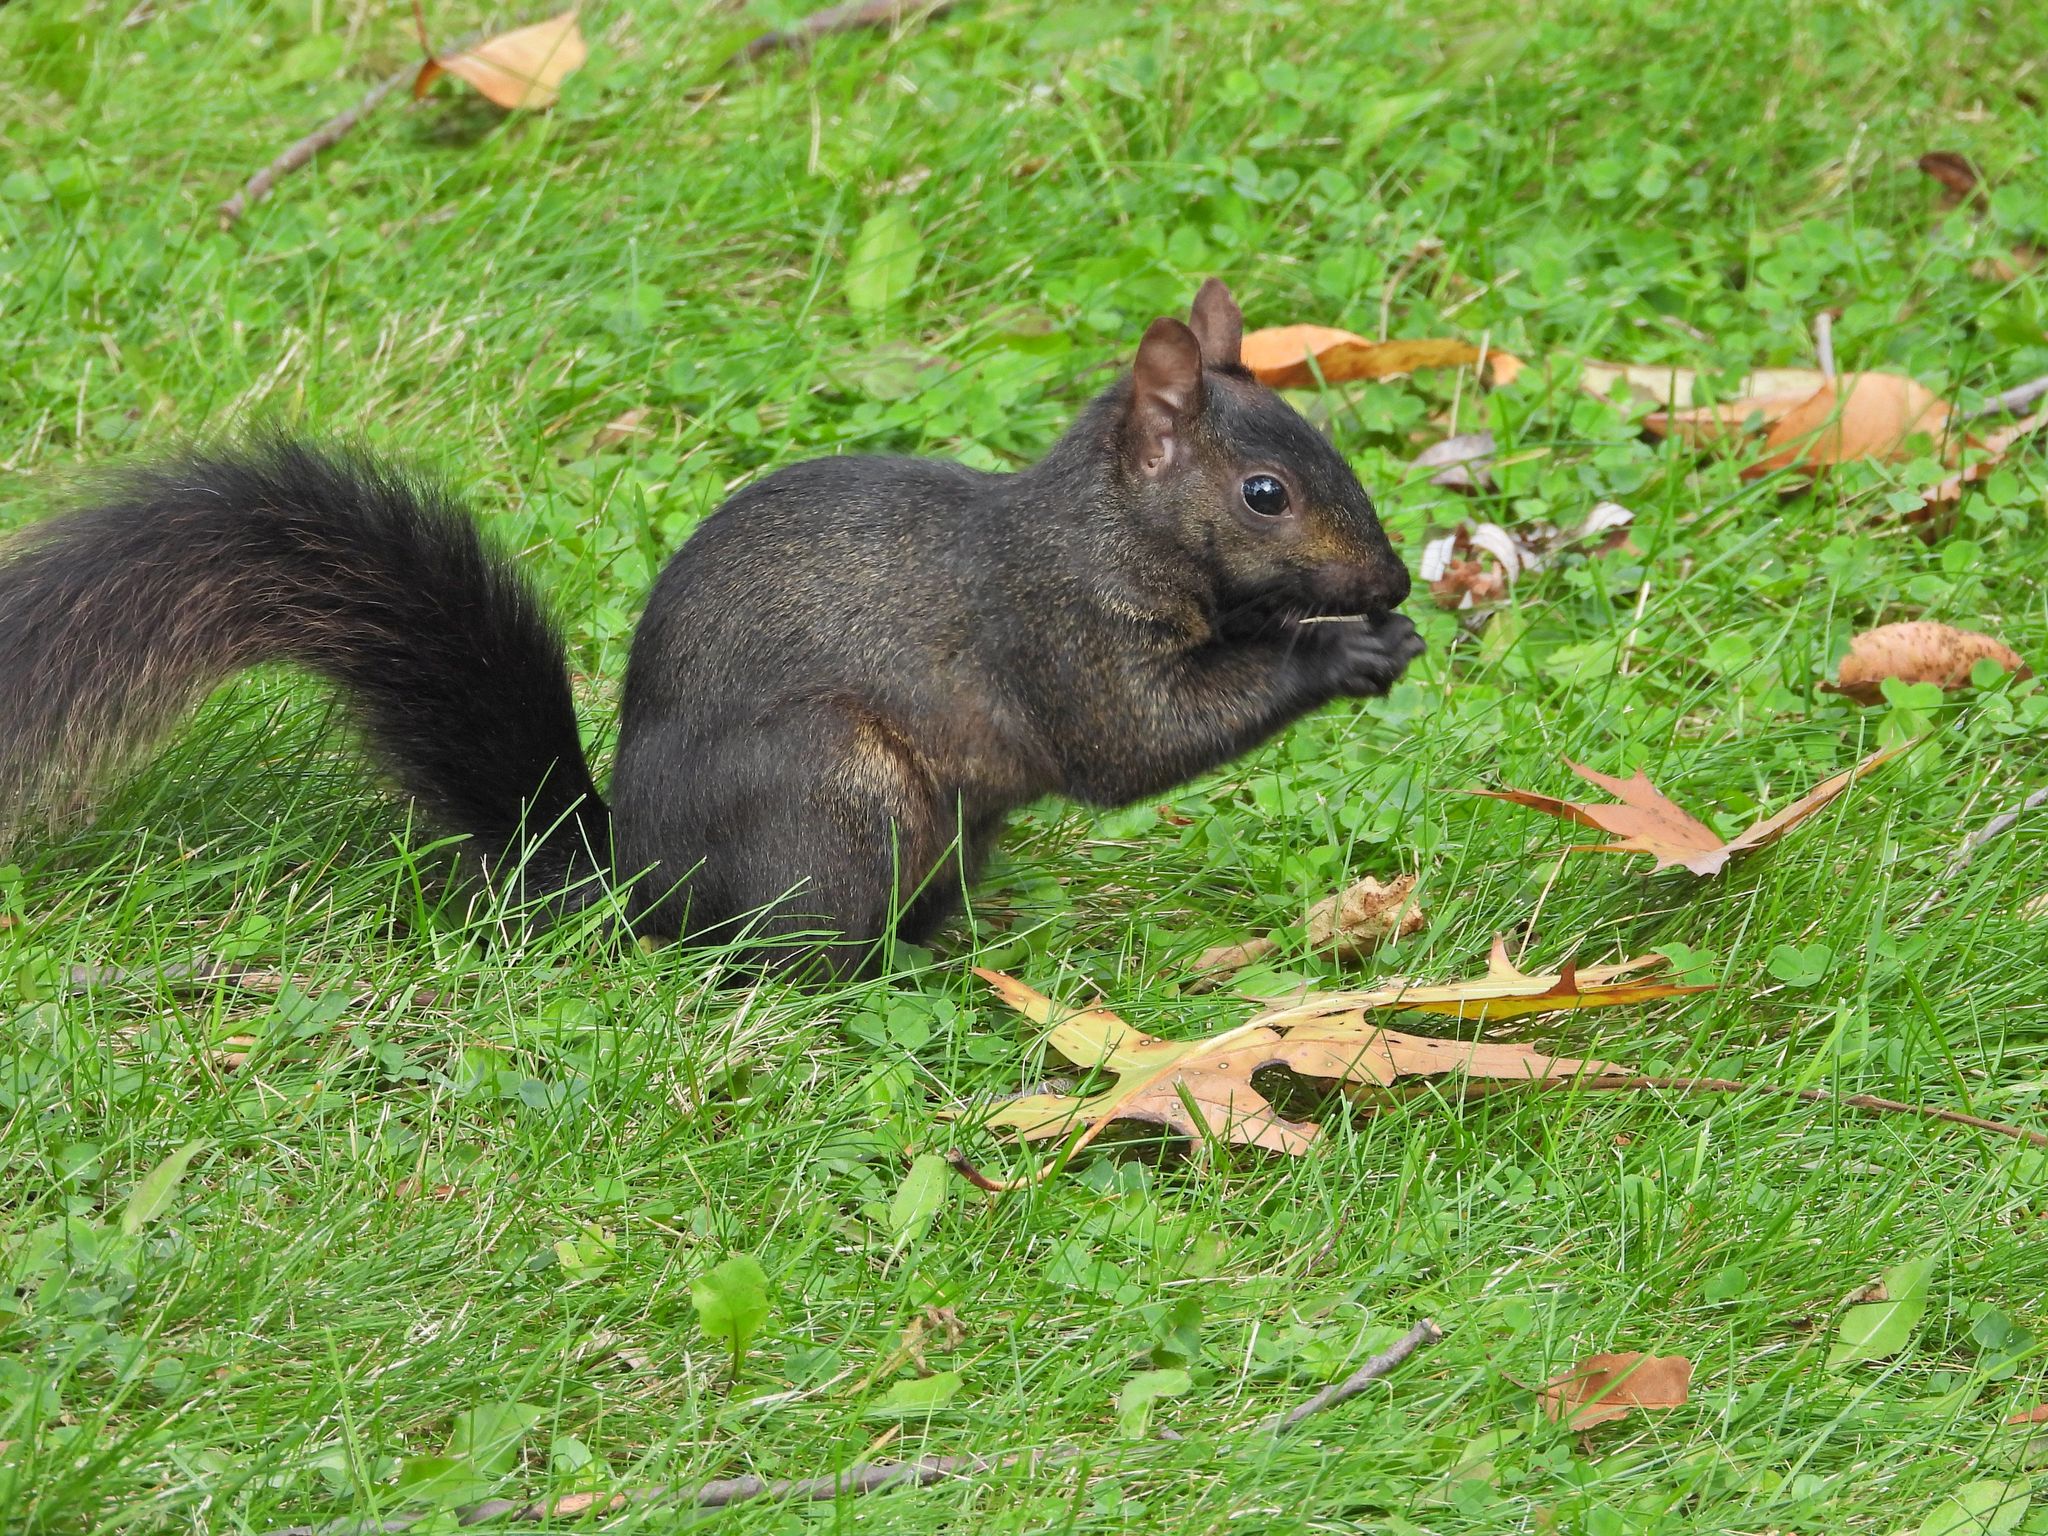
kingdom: Animalia
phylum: Chordata
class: Mammalia
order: Rodentia
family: Sciuridae
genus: Sciurus
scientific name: Sciurus carolinensis
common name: Eastern gray squirrel
